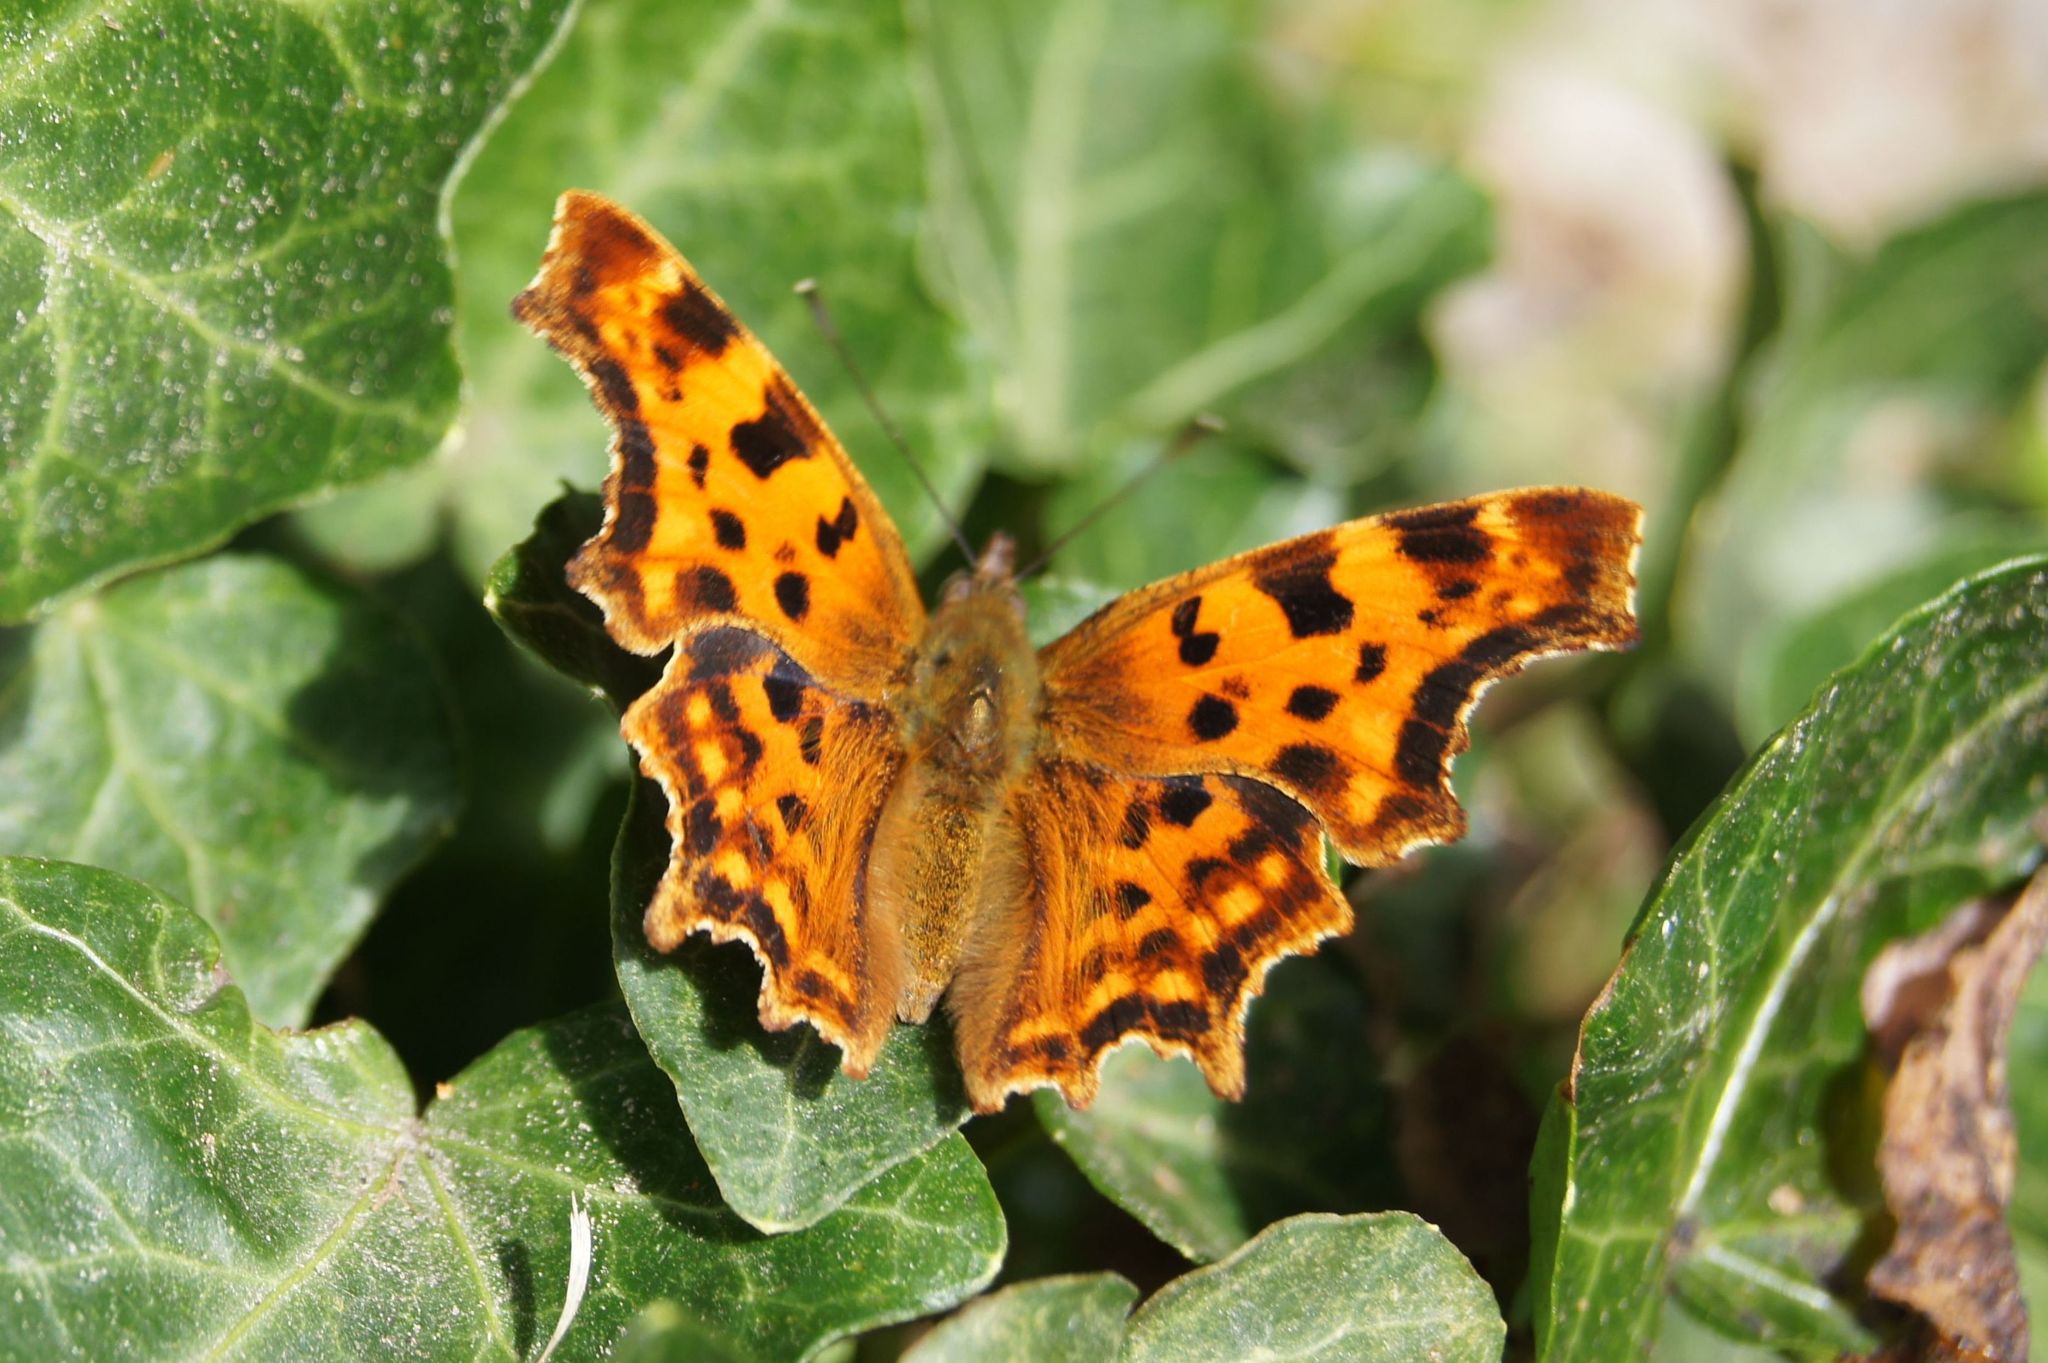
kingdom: Animalia
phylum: Arthropoda
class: Insecta
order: Lepidoptera
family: Nymphalidae
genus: Polygonia
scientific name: Polygonia c-album
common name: Comma
